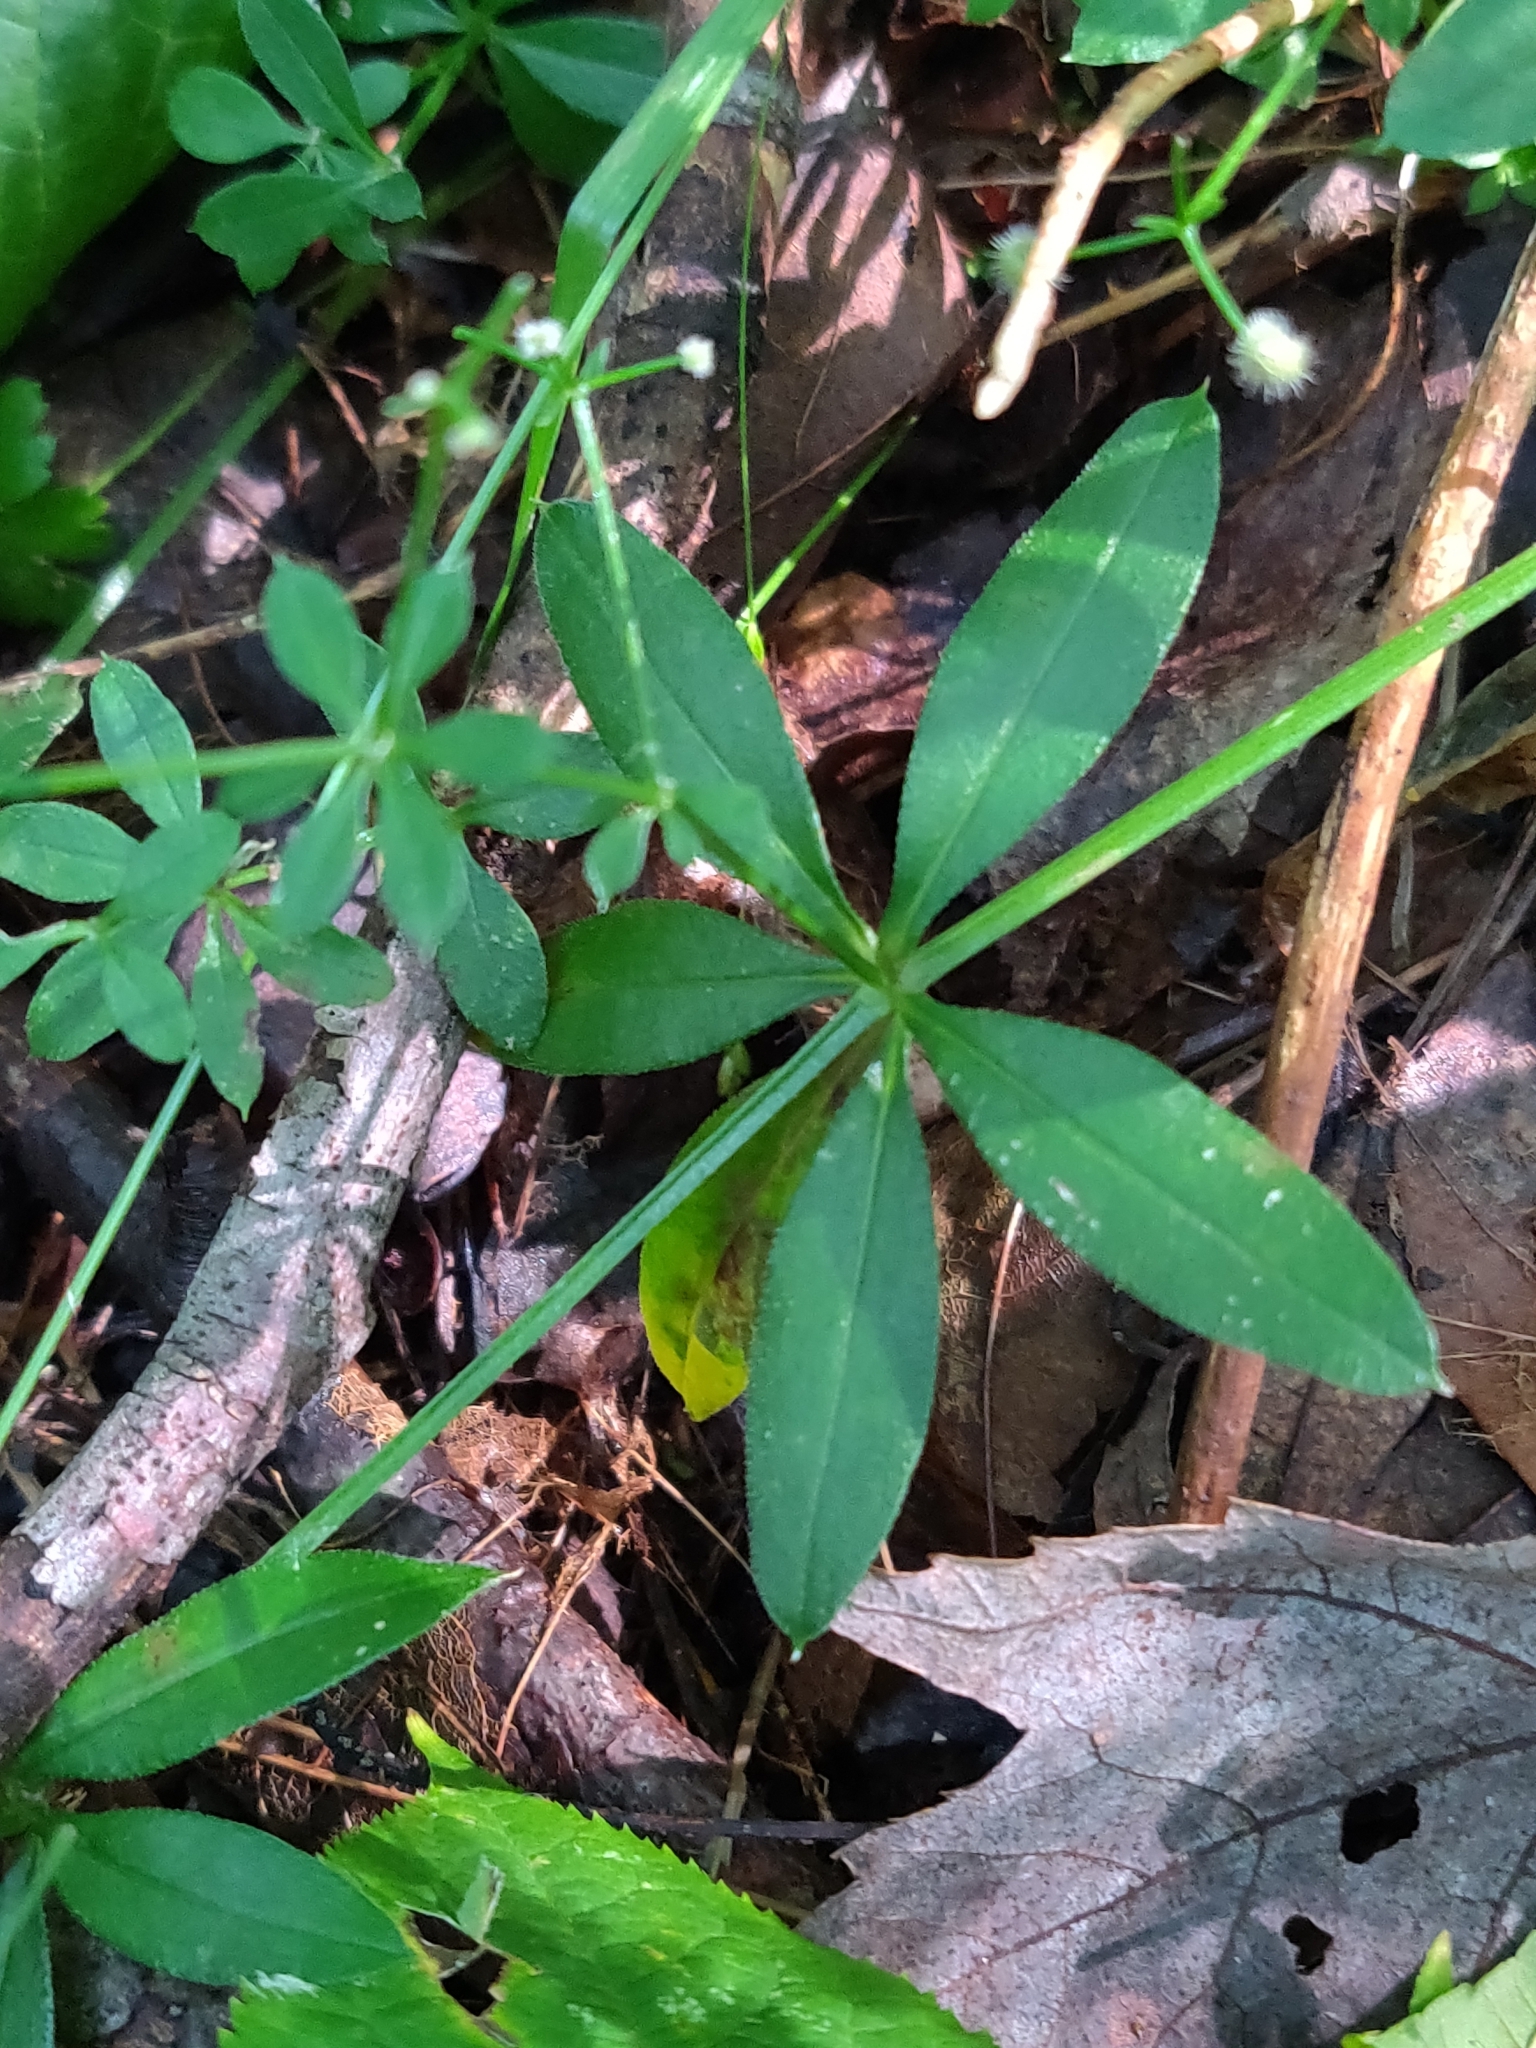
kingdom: Plantae
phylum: Tracheophyta
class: Magnoliopsida
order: Gentianales
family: Rubiaceae
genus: Galium
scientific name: Galium triflorum
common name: Fragrant bedstraw
